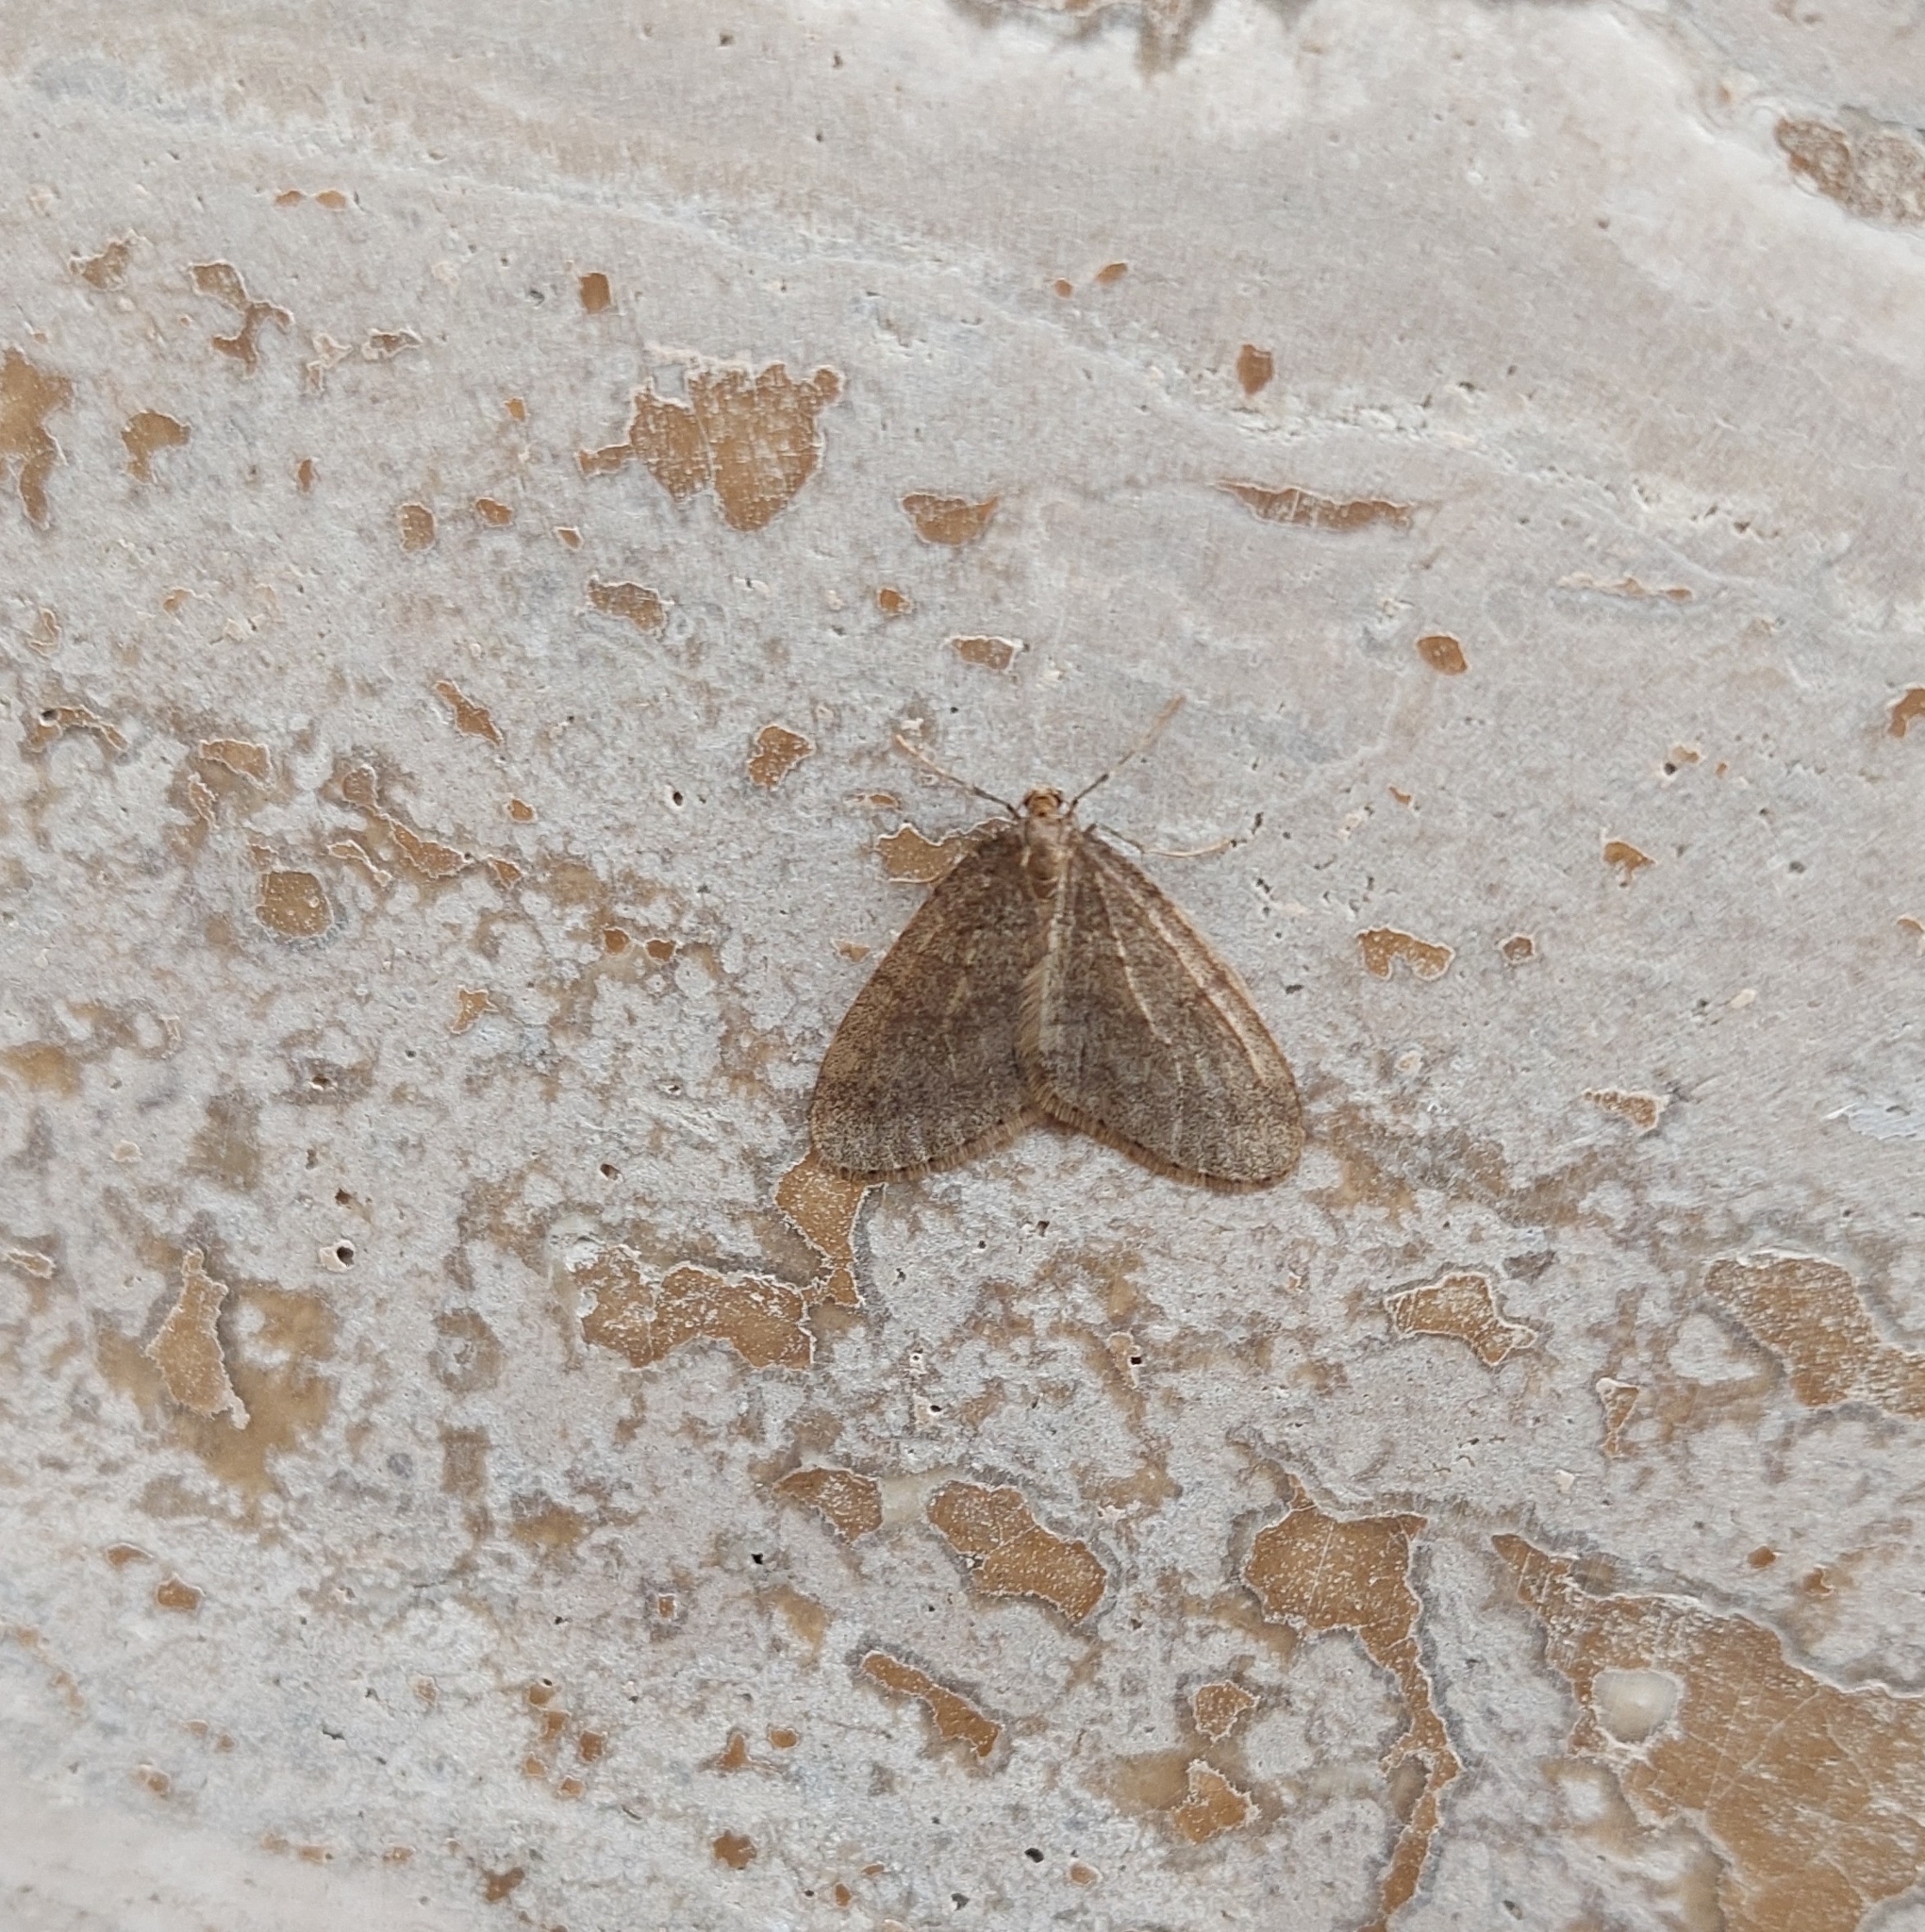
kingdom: Animalia
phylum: Arthropoda
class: Insecta
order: Lepidoptera
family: Geometridae
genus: Operophtera
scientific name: Operophtera brumata
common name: Winter moth
